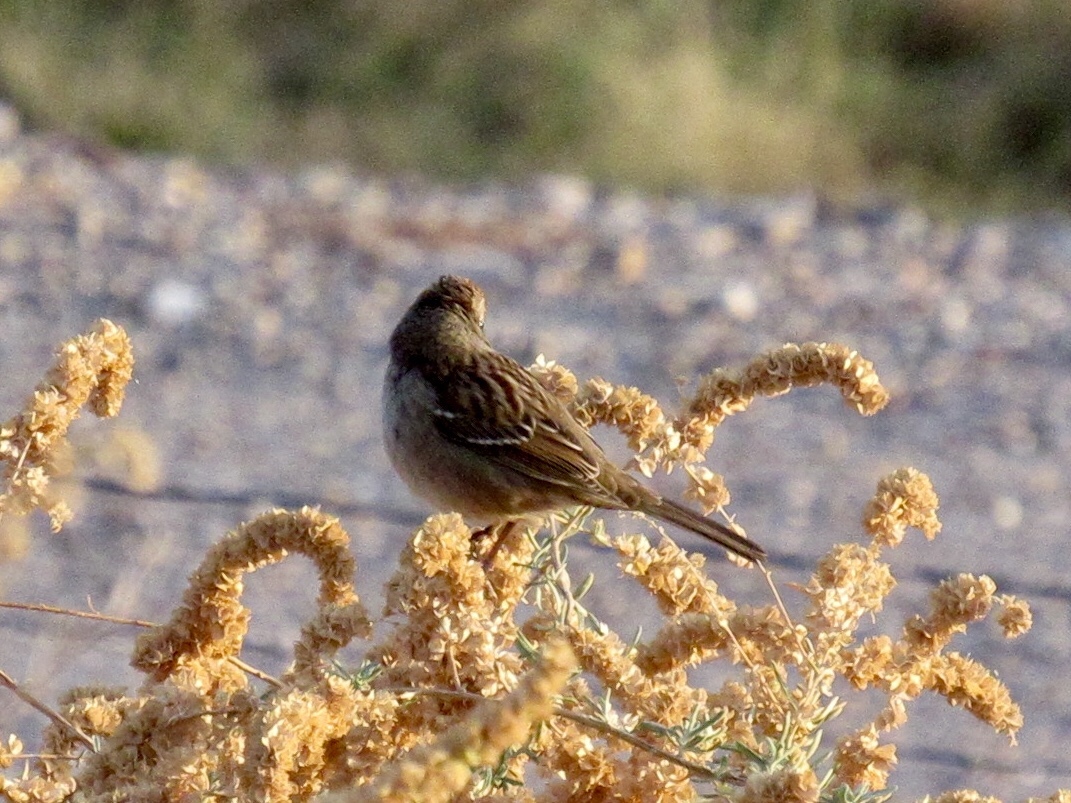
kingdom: Animalia
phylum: Chordata
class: Aves
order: Passeriformes
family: Passerellidae
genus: Zonotrichia
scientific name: Zonotrichia leucophrys
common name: White-crowned sparrow
